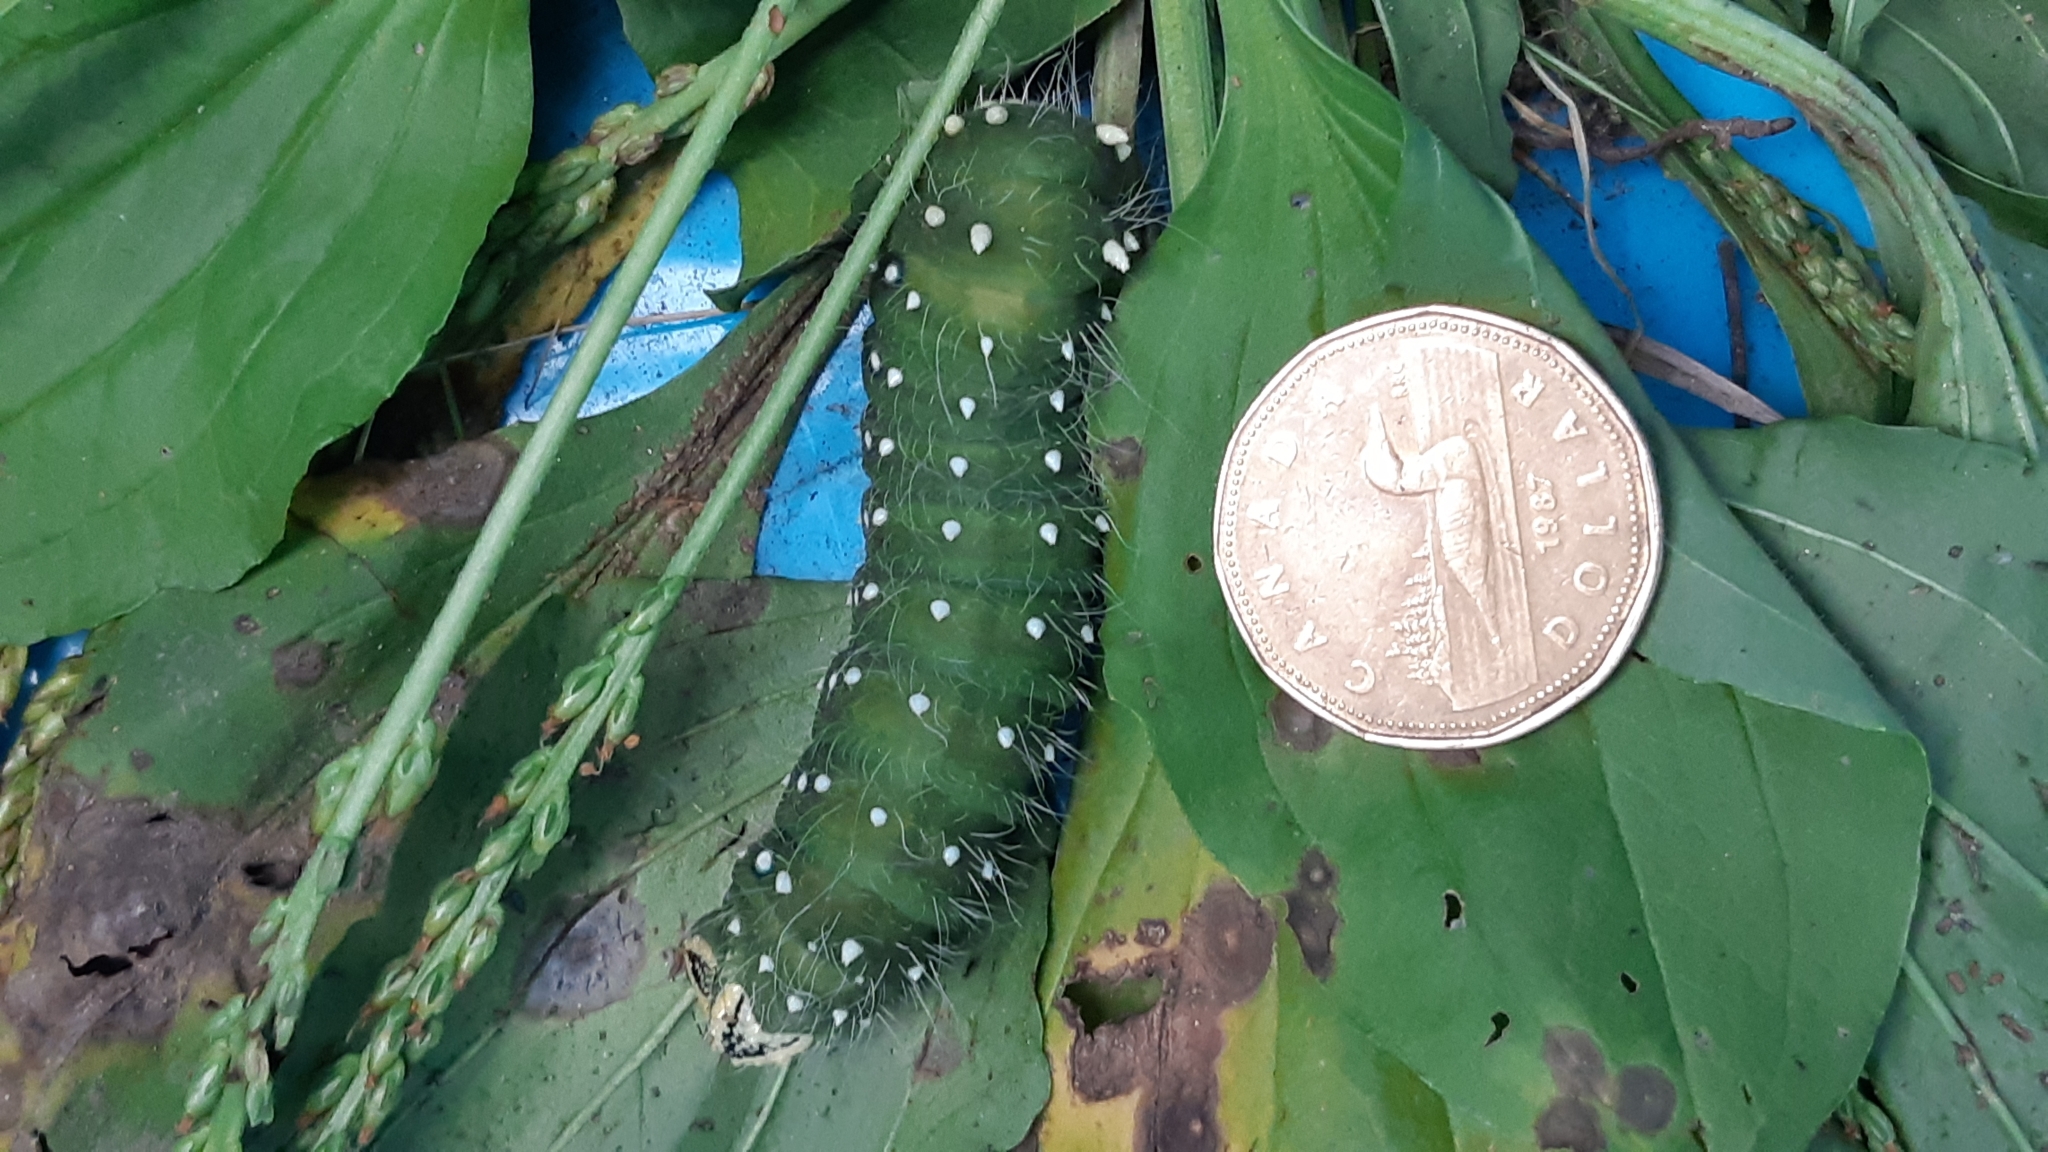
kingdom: Animalia
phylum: Arthropoda
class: Insecta
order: Lepidoptera
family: Saturniidae
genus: Eacles
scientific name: Eacles
